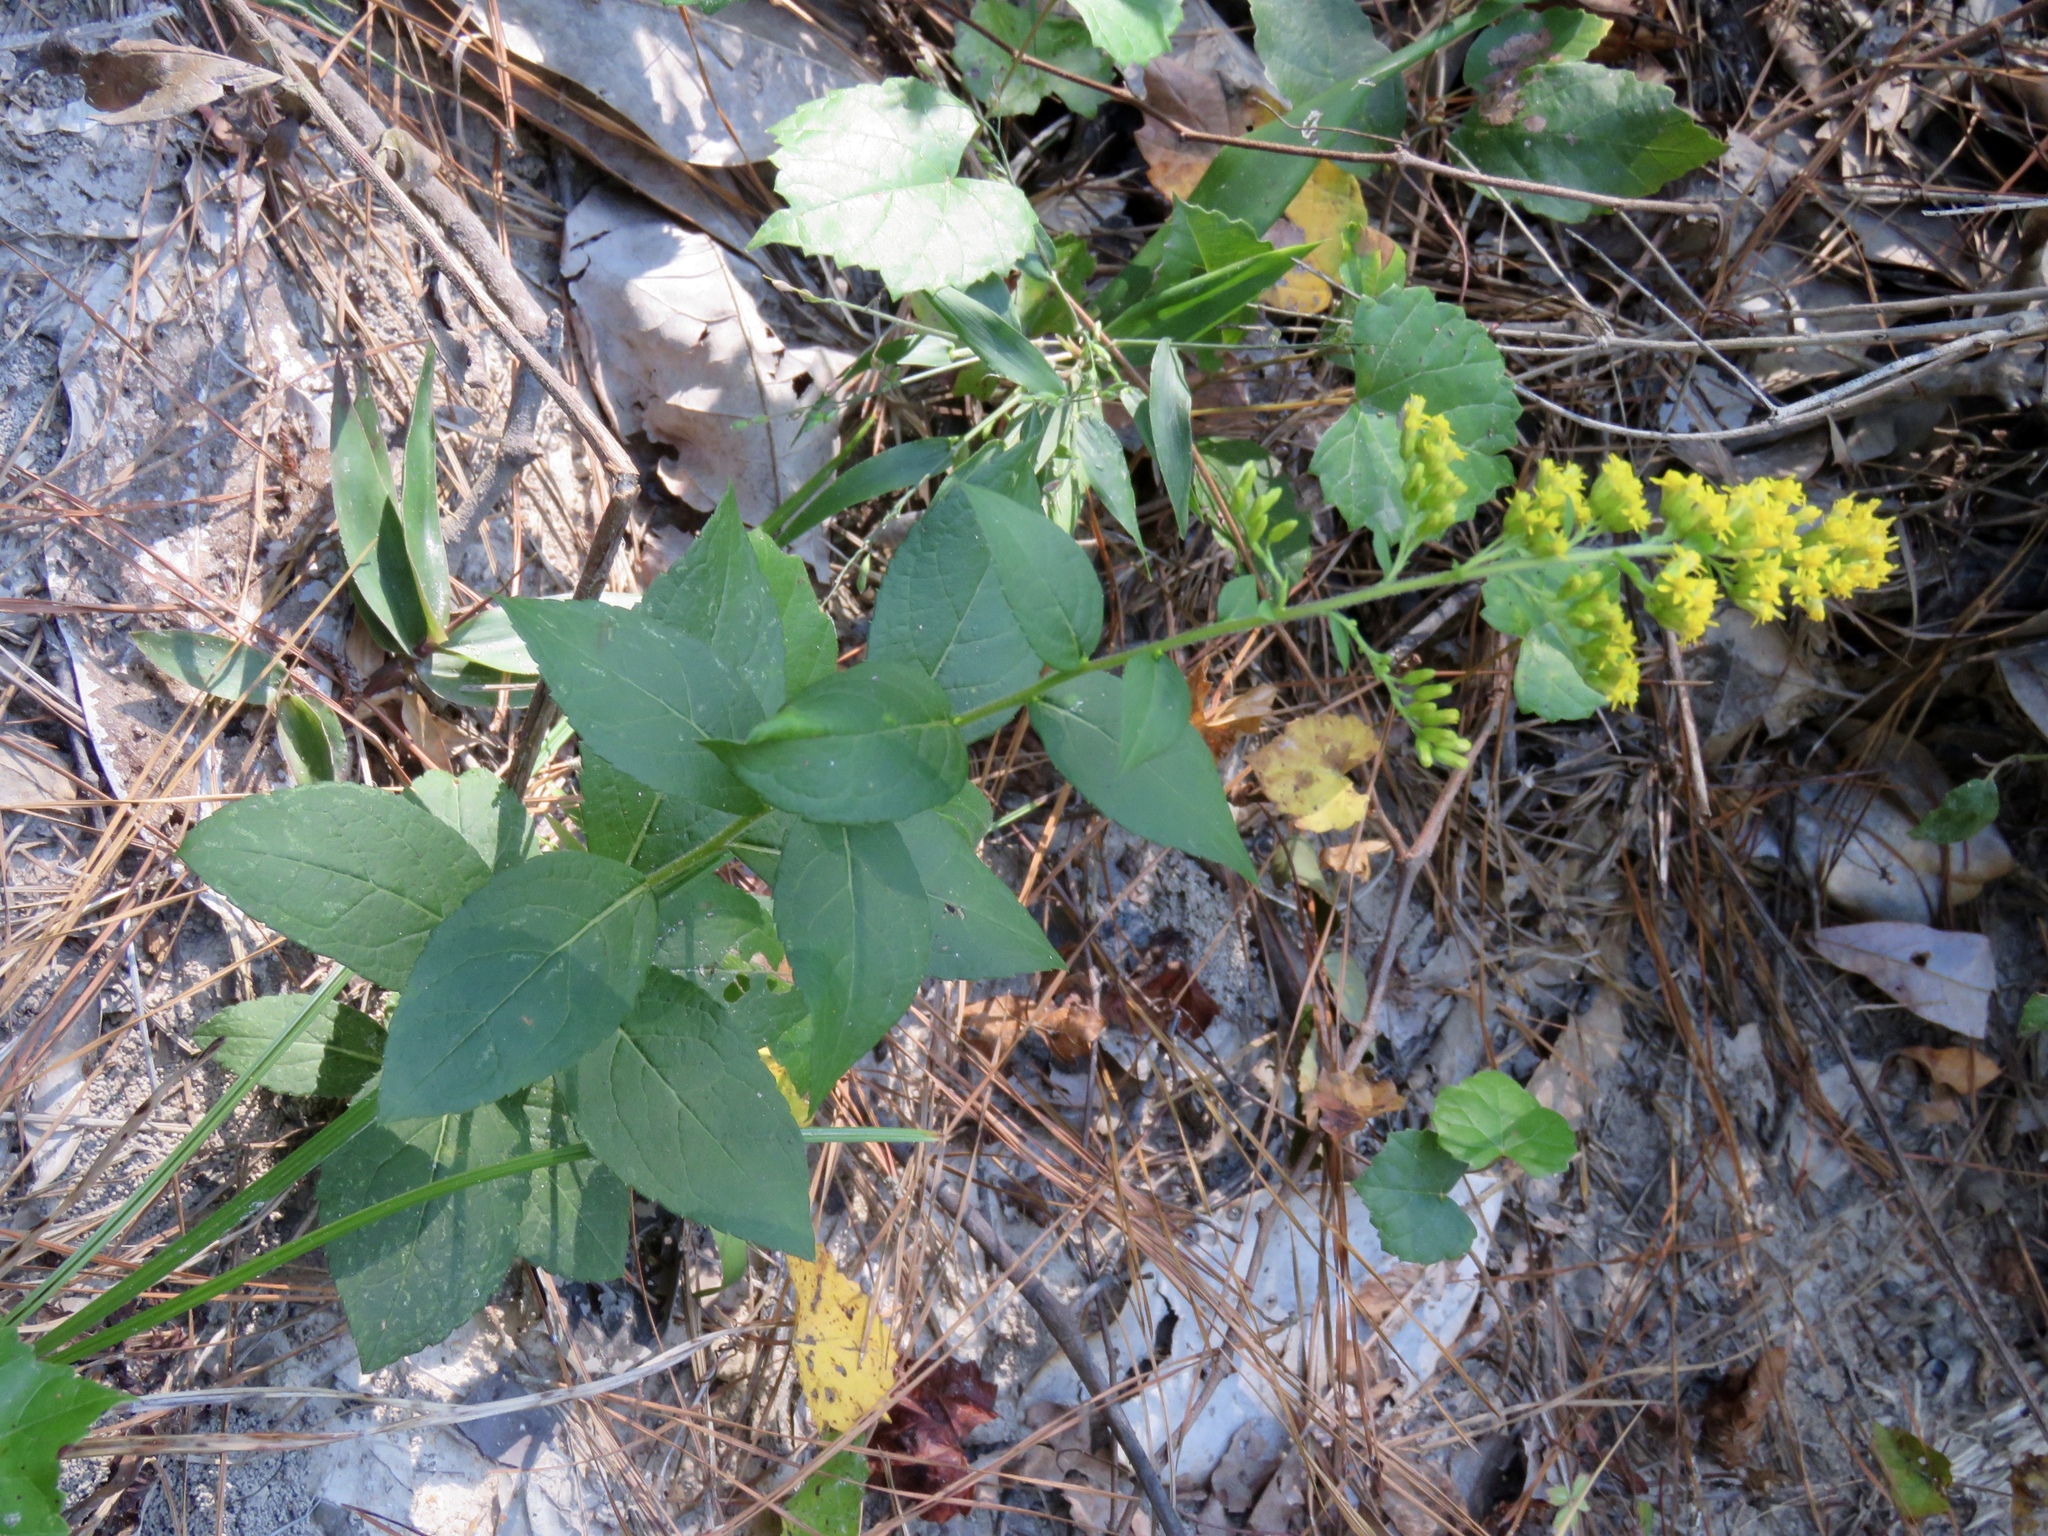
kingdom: Plantae
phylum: Tracheophyta
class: Magnoliopsida
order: Asterales
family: Asteraceae
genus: Solidago
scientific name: Solidago rugosa
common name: Rough-stemmed goldenrod
